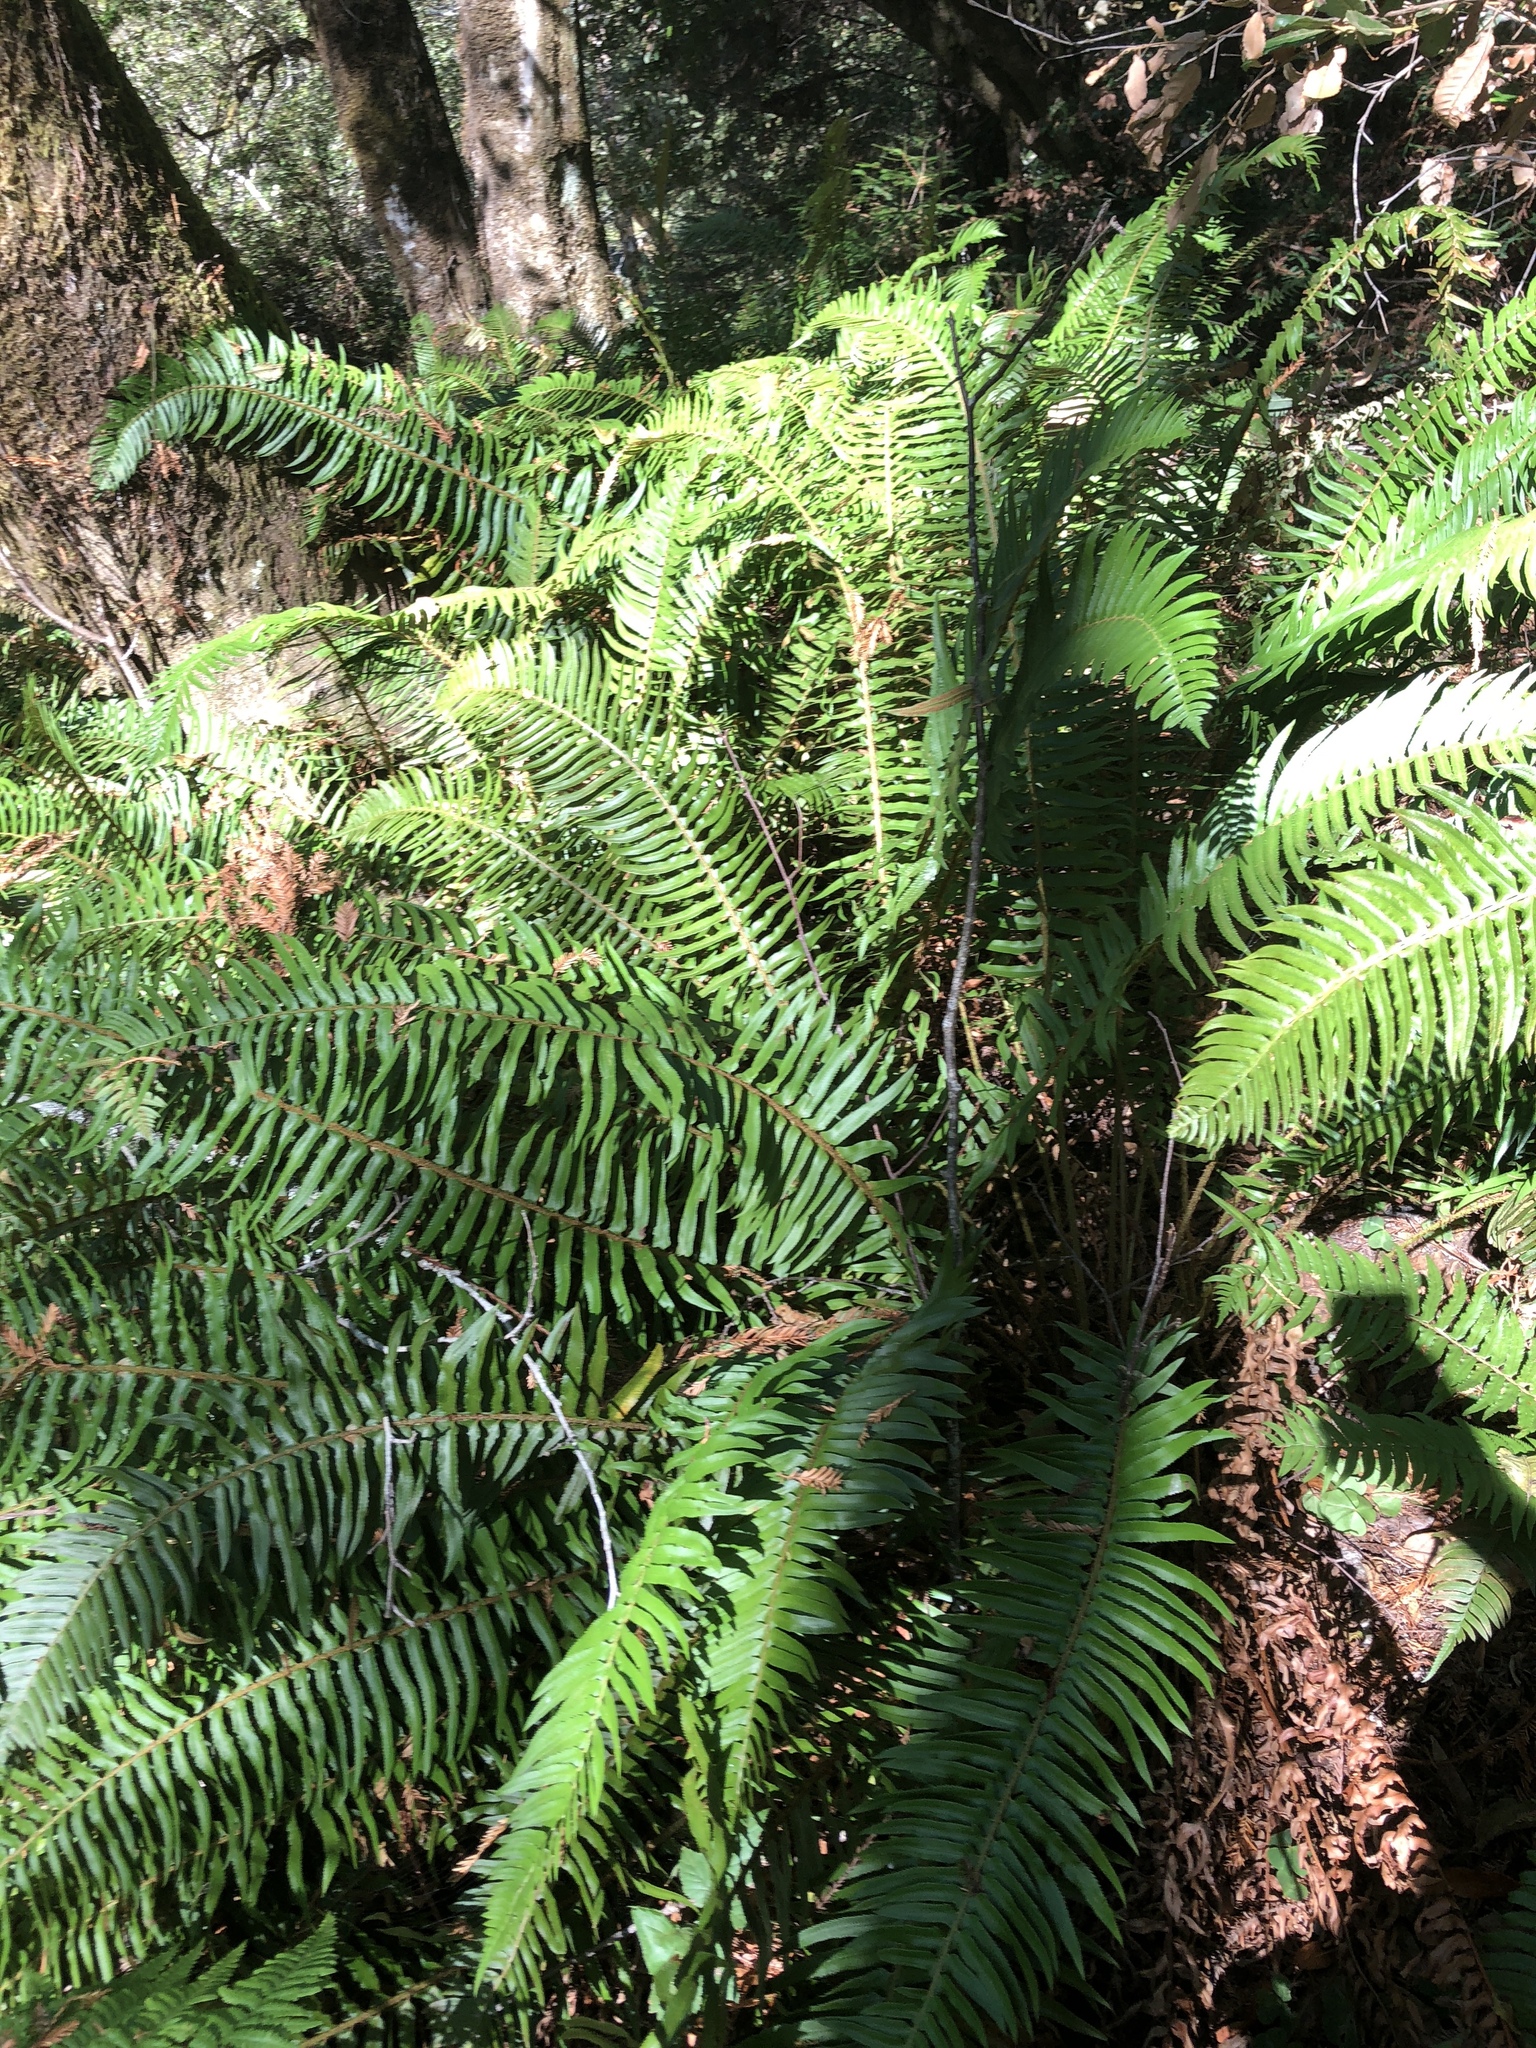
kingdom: Plantae
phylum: Tracheophyta
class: Polypodiopsida
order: Polypodiales
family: Dryopteridaceae
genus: Polystichum
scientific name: Polystichum munitum
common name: Western sword-fern
